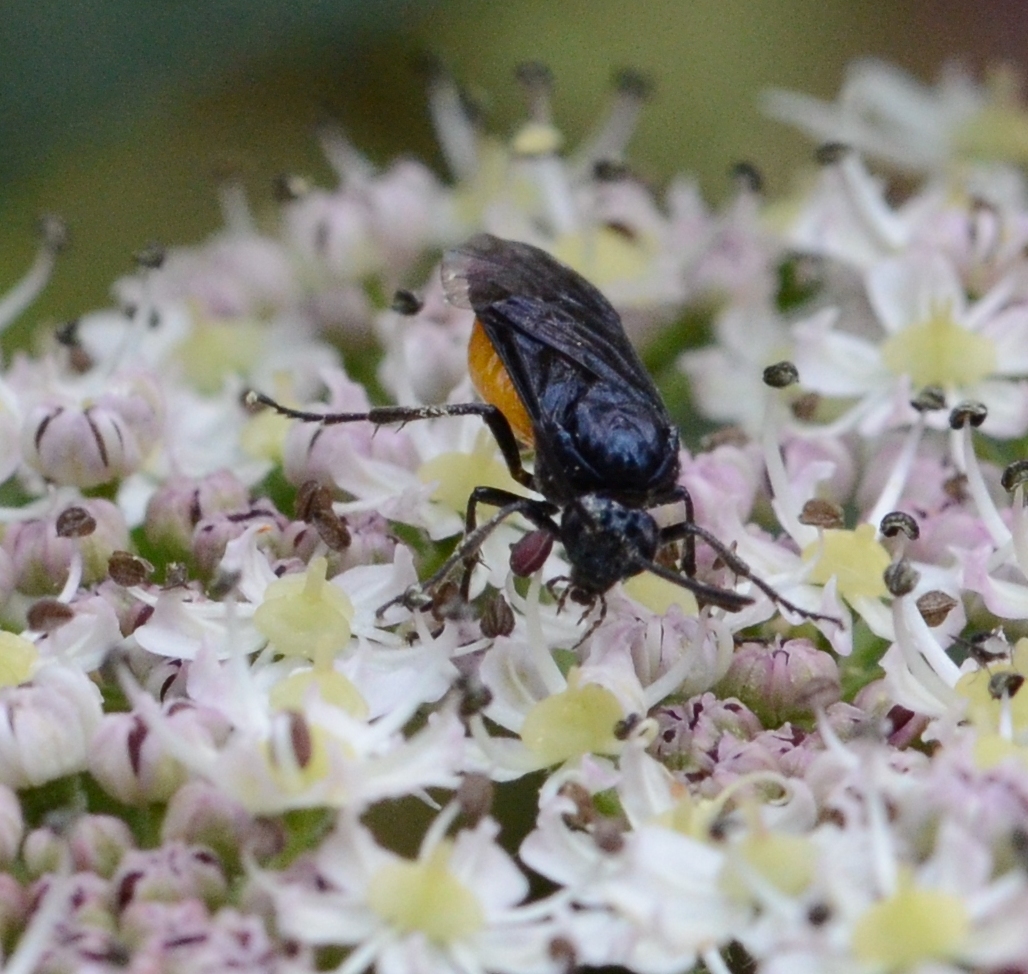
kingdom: Animalia
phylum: Arthropoda
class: Insecta
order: Hymenoptera
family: Argidae
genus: Arge
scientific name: Arge pagana
